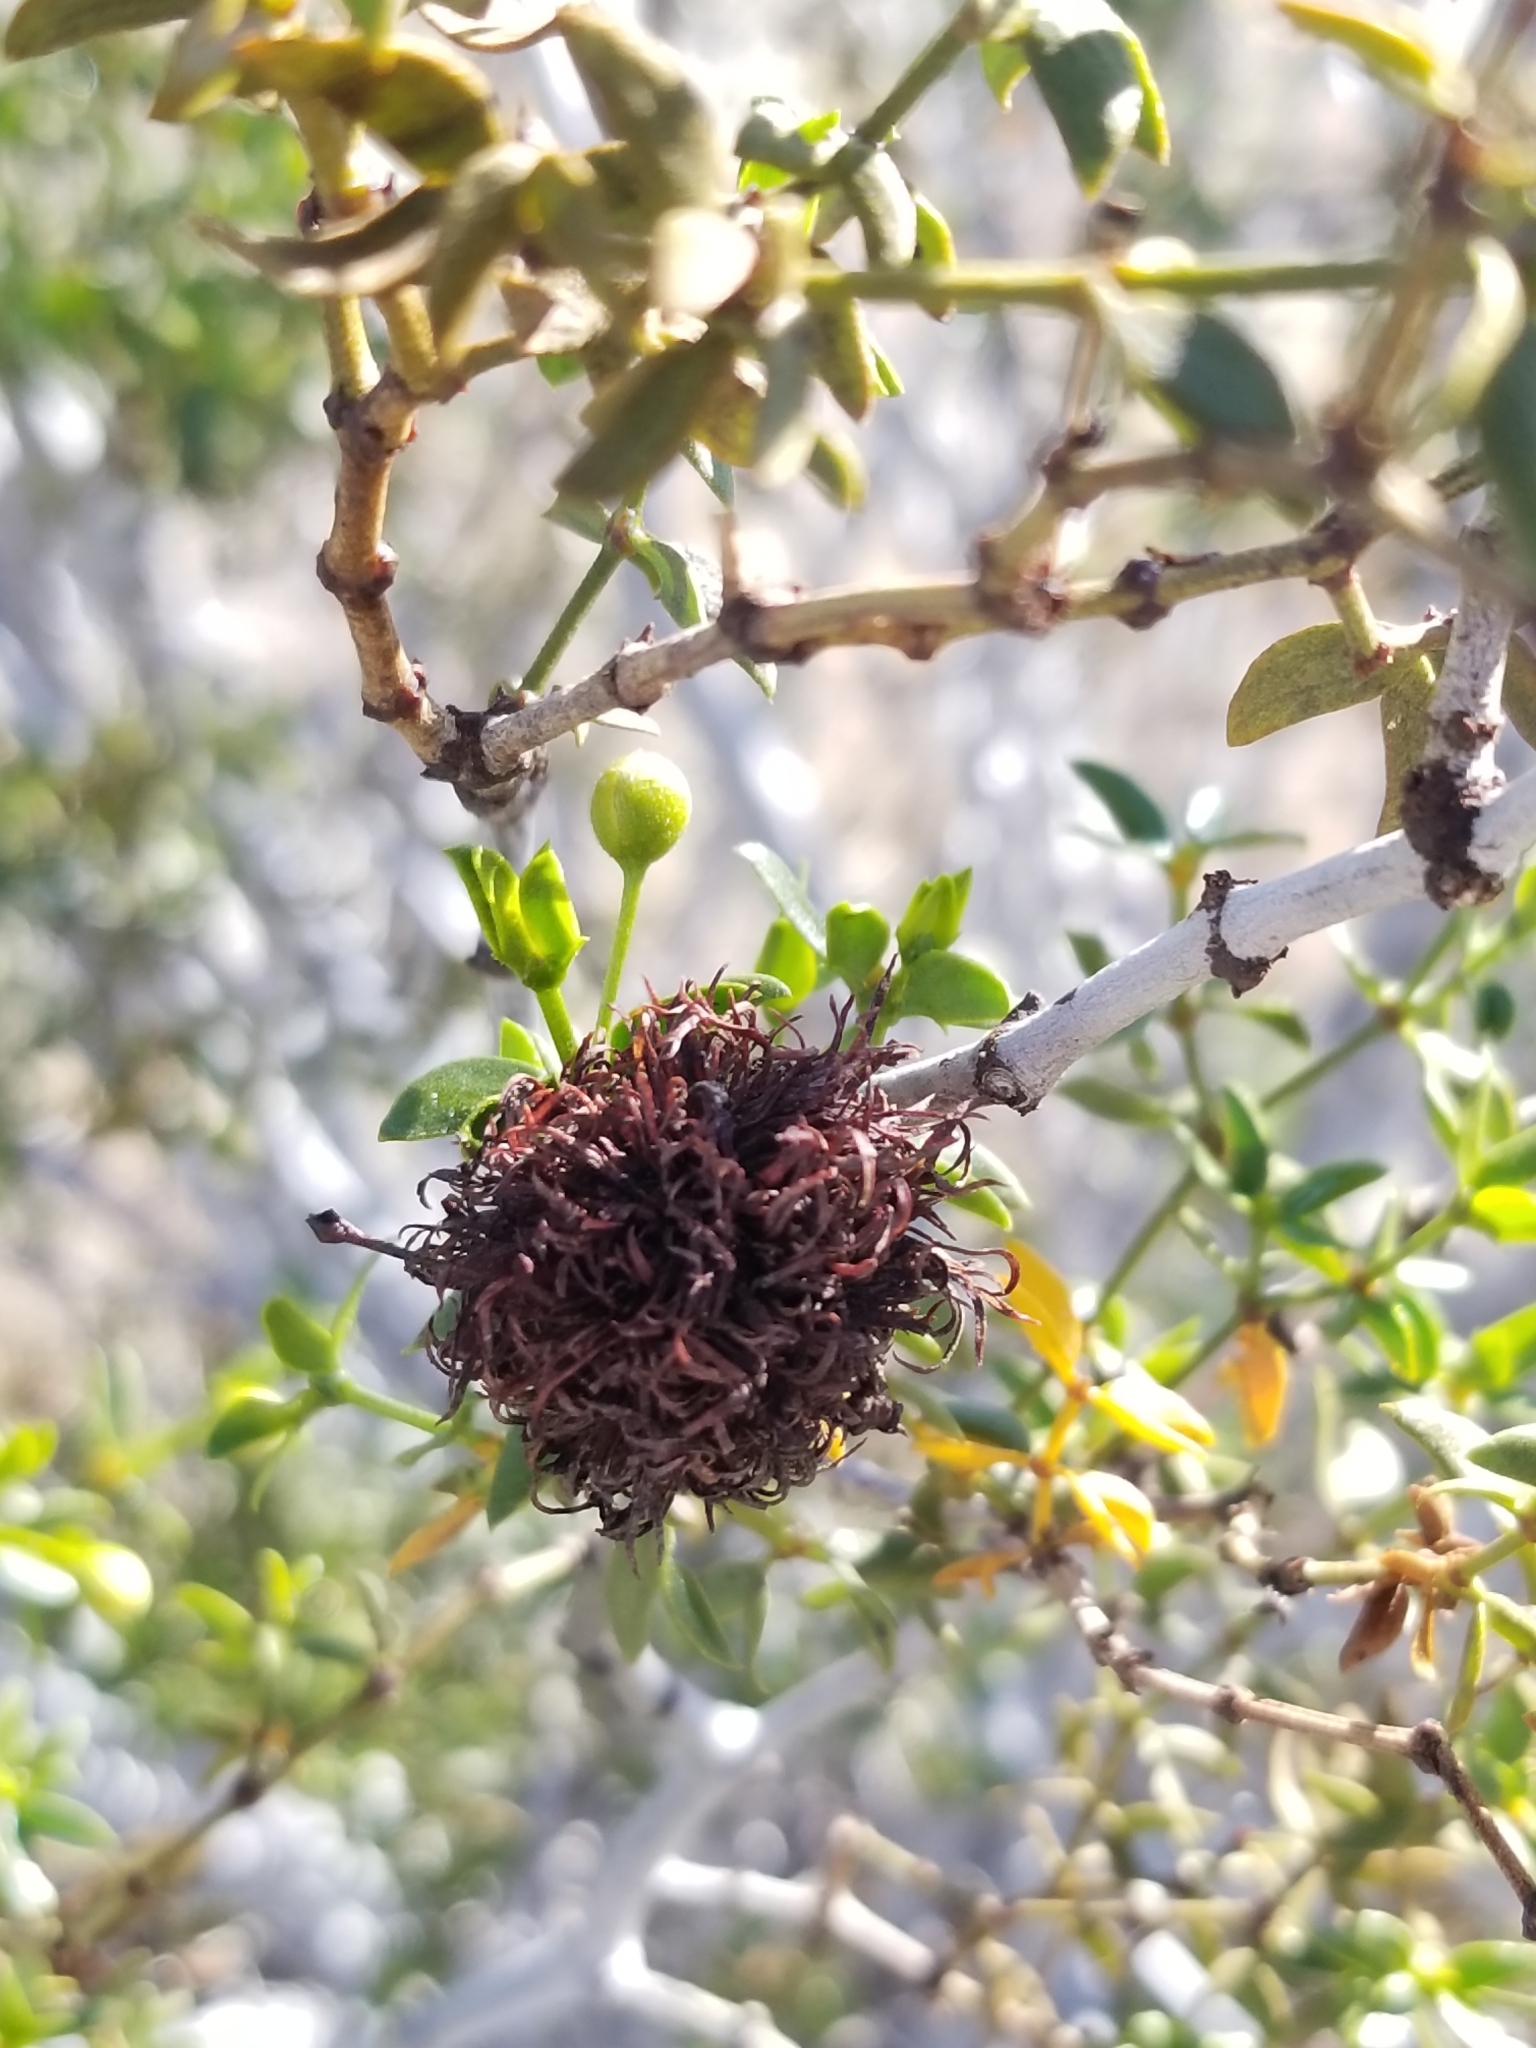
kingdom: Animalia
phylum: Arthropoda
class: Insecta
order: Diptera
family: Cecidomyiidae
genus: Asphondylia
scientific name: Asphondylia auripila
